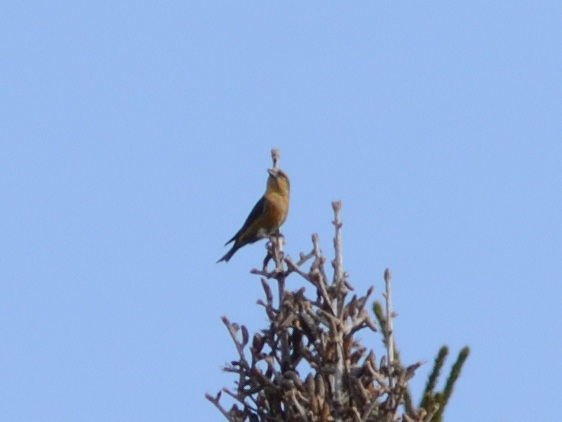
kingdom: Animalia
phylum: Chordata
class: Aves
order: Passeriformes
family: Fringillidae
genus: Loxia
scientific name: Loxia curvirostra
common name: Red crossbill
